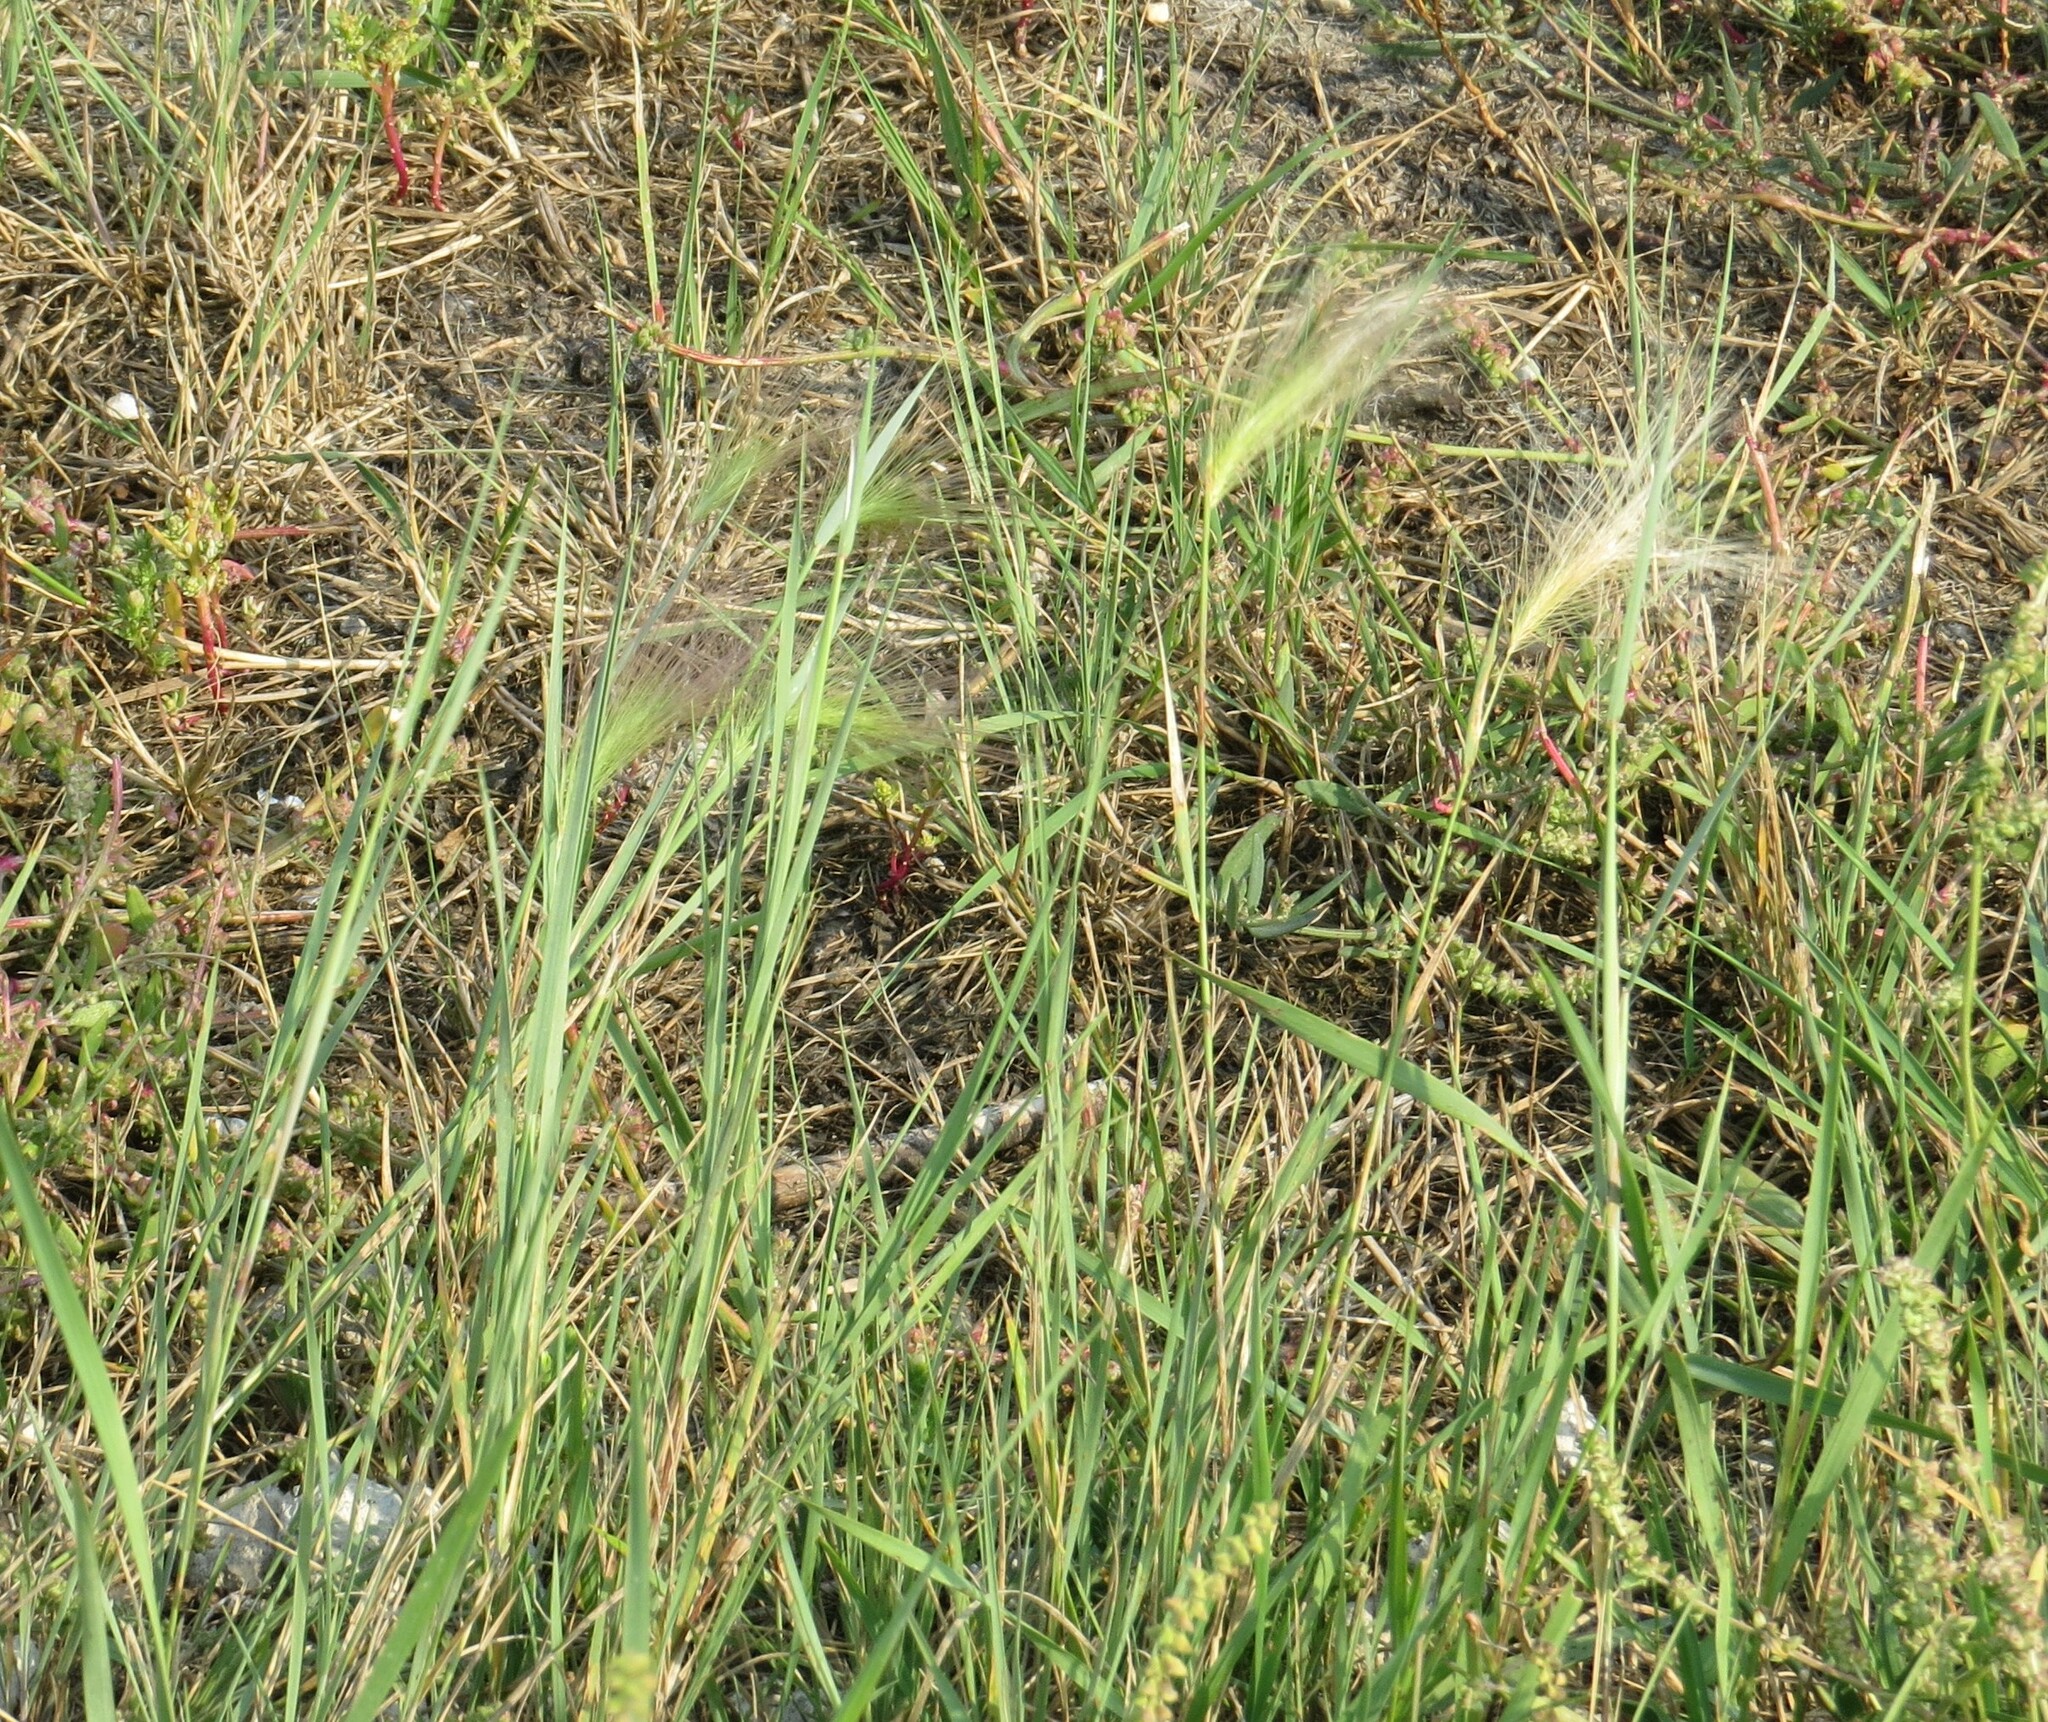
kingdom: Plantae
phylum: Tracheophyta
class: Liliopsida
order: Poales
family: Poaceae
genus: Hordeum
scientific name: Hordeum jubatum
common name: Foxtail barley
